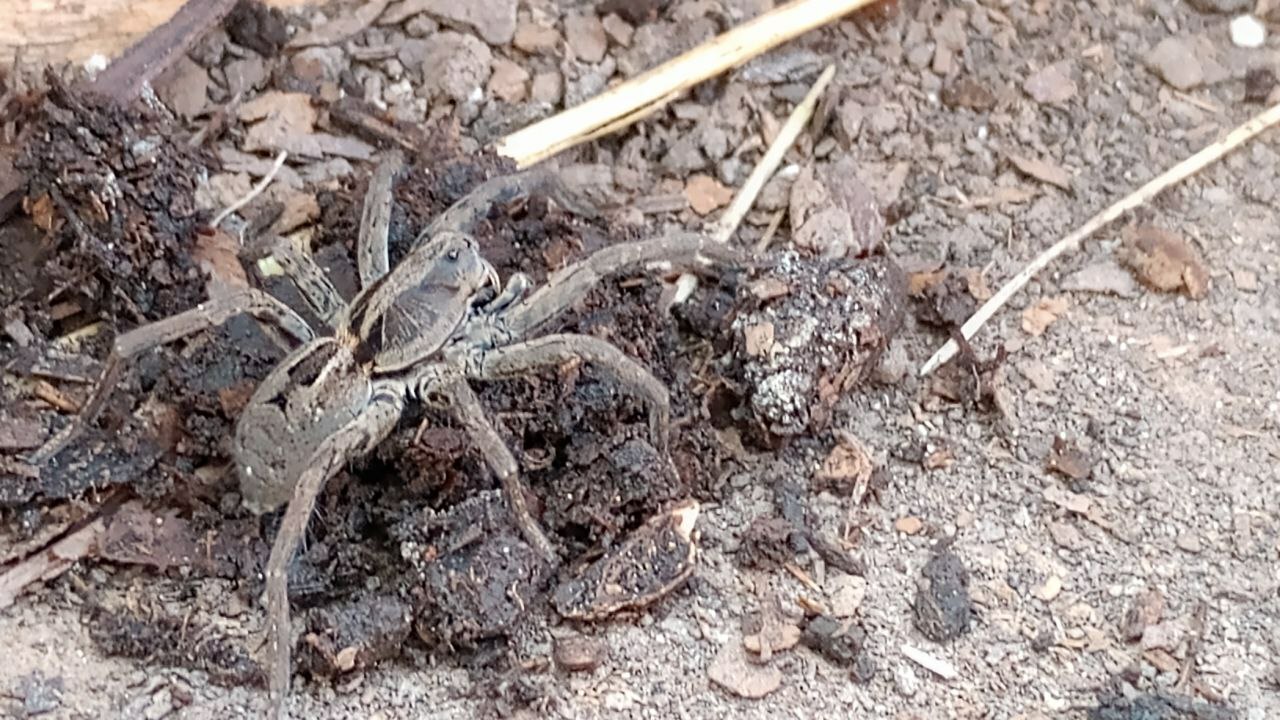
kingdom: Animalia
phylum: Arthropoda
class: Arachnida
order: Araneae
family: Lycosidae
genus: Lycosa
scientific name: Lycosa erythrognatha
